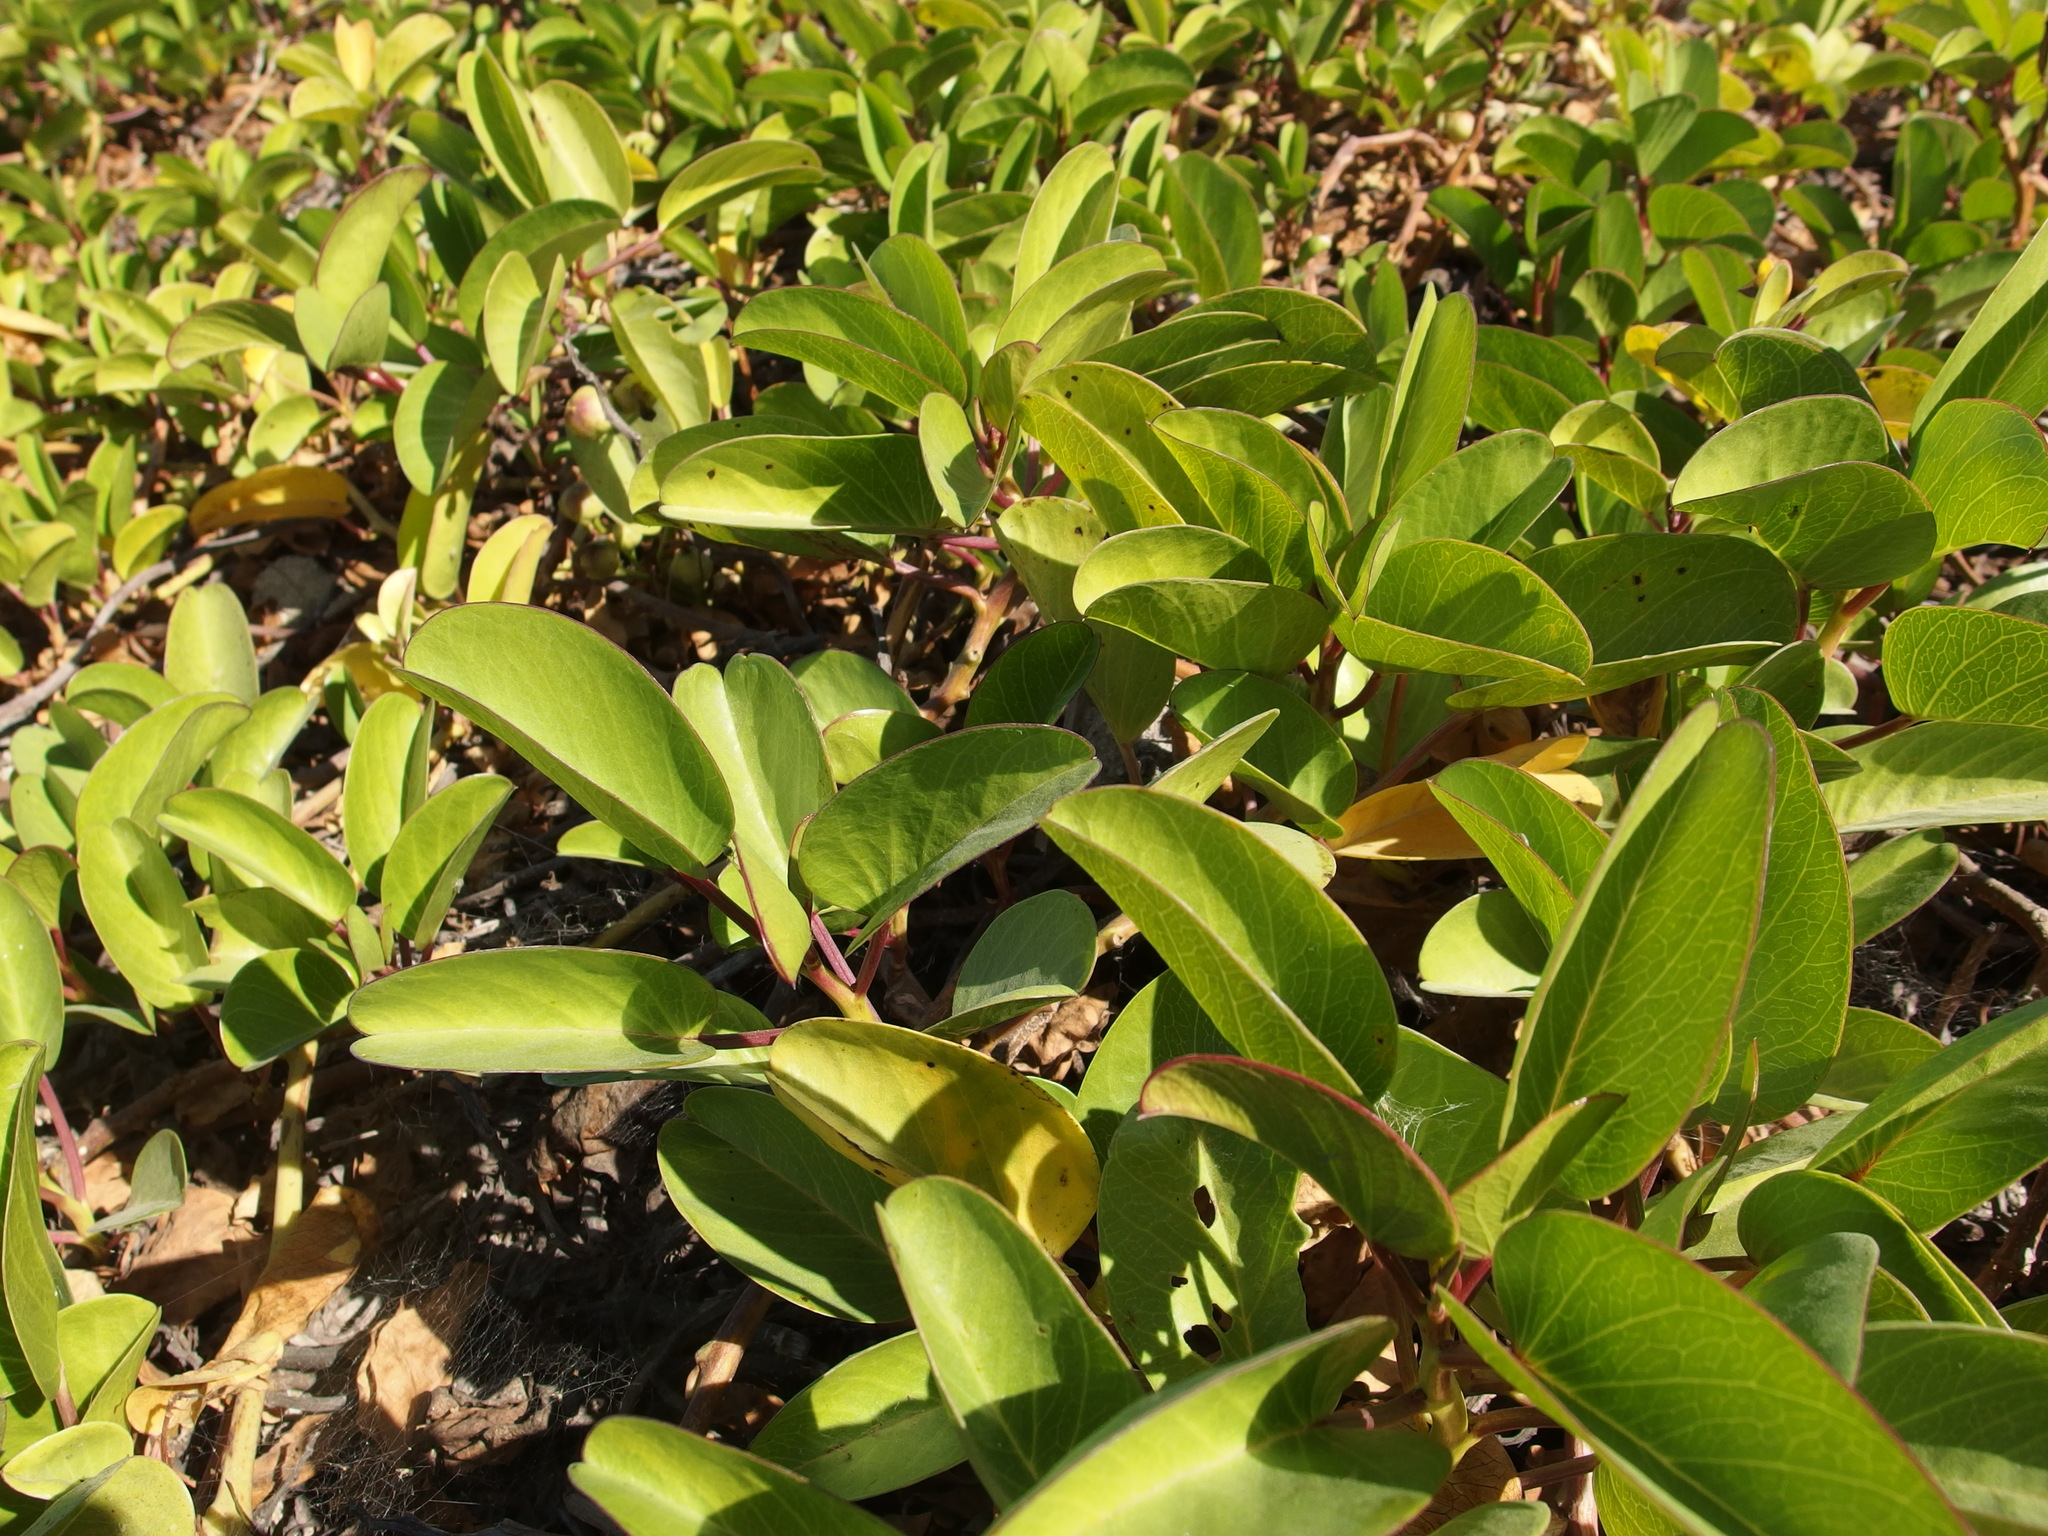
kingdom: Plantae
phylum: Tracheophyta
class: Magnoliopsida
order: Solanales
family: Convolvulaceae
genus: Ipomoea
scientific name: Ipomoea pes-caprae
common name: Beach morning glory
